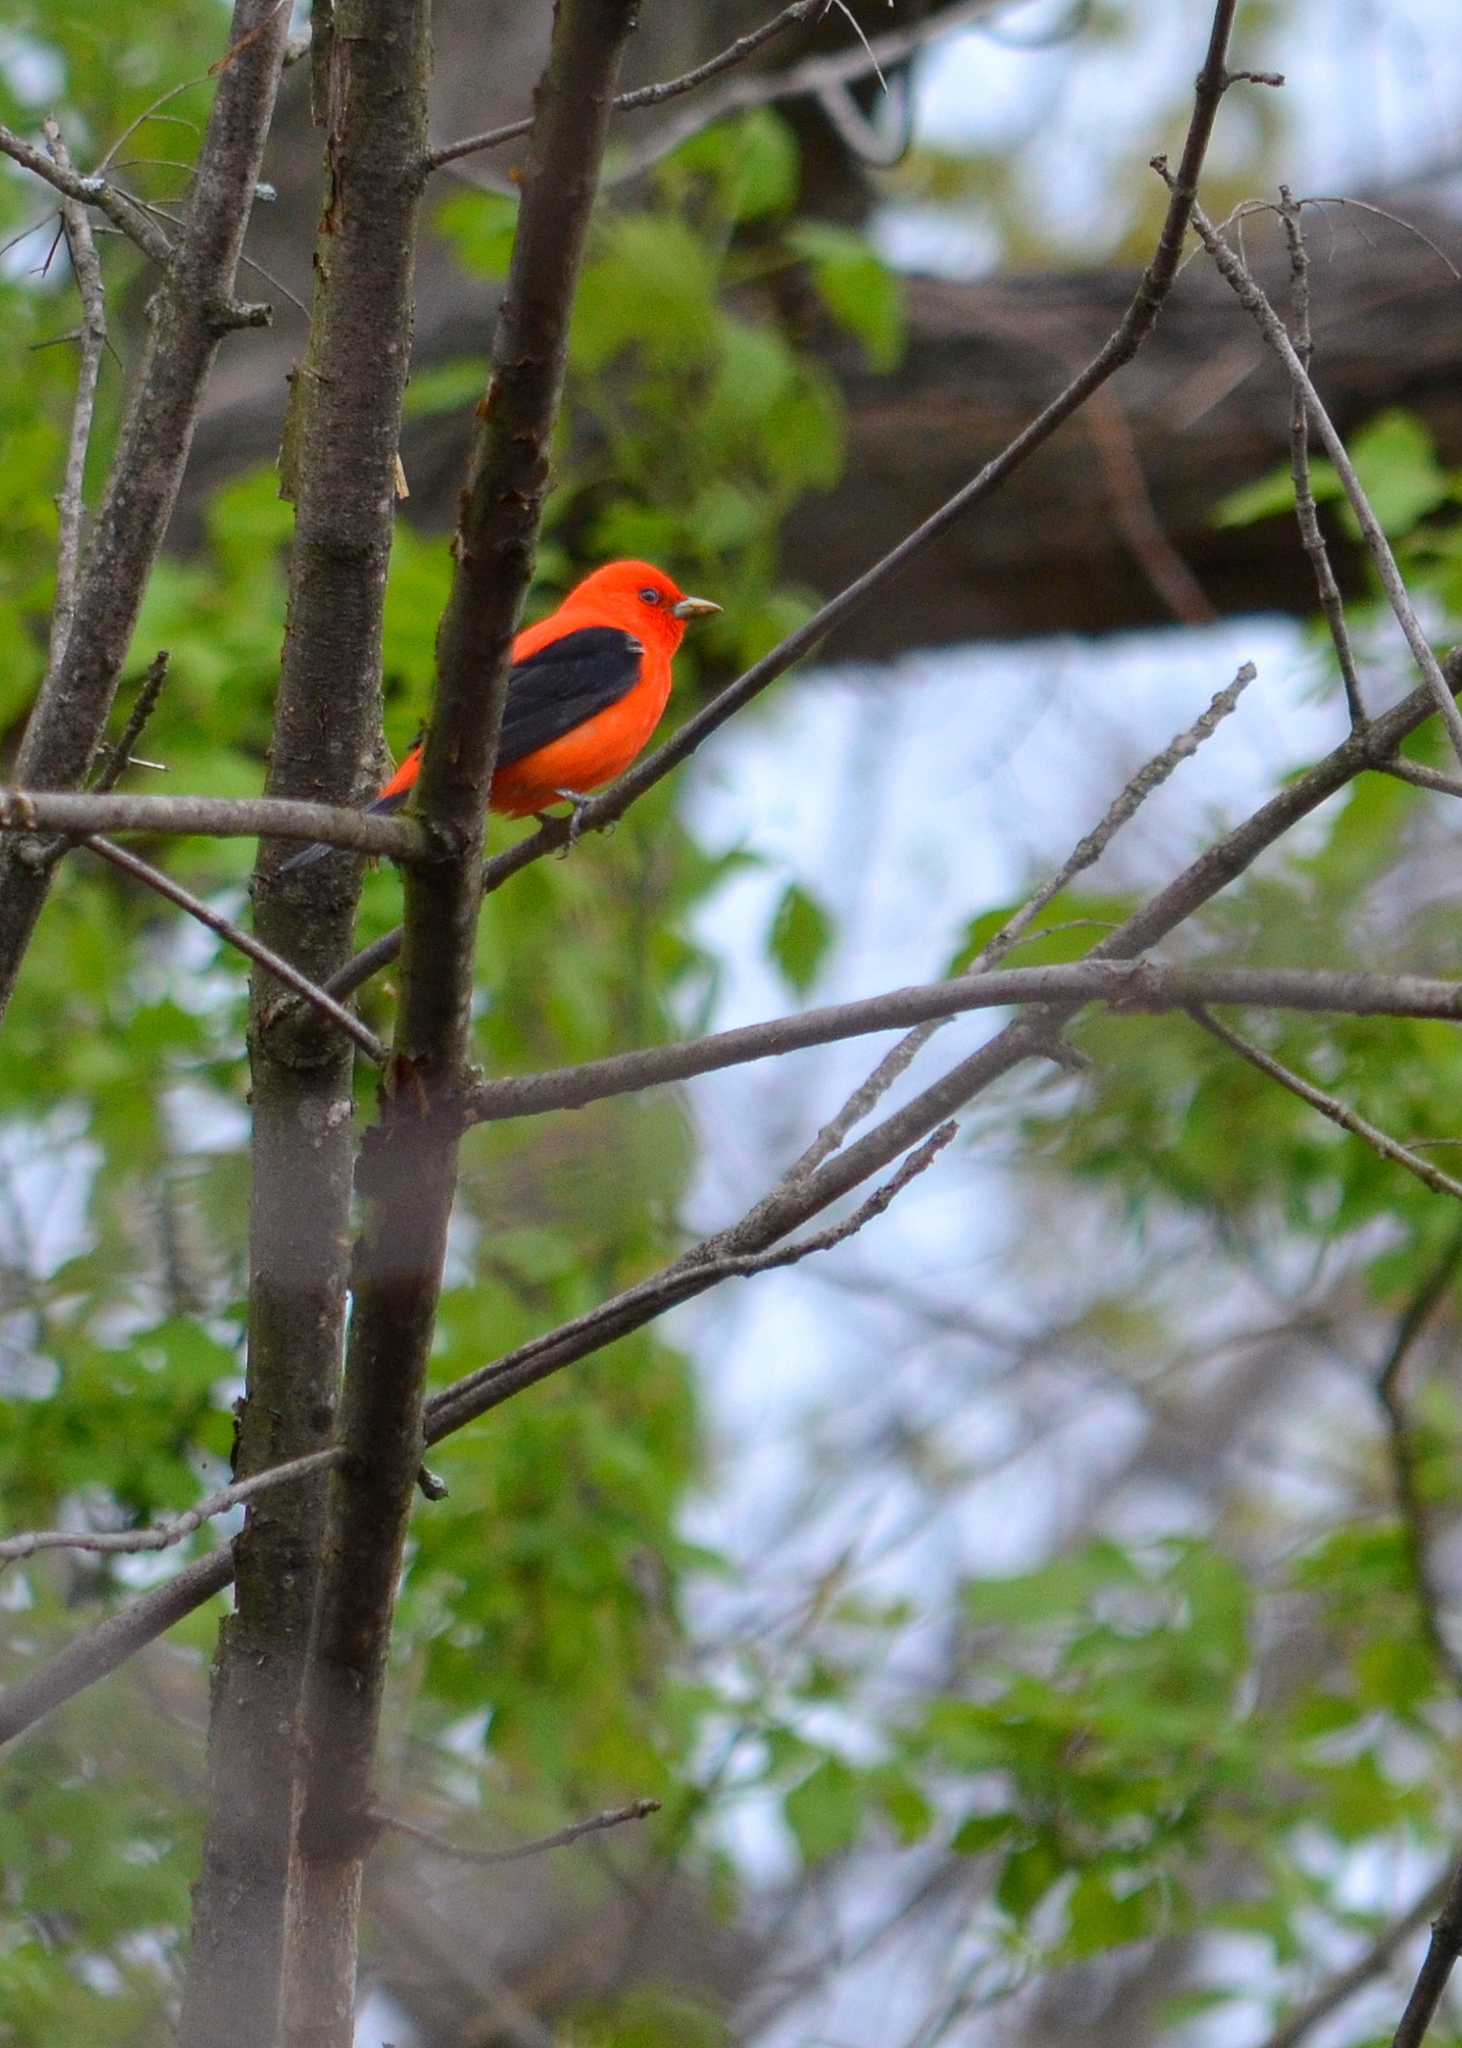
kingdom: Animalia
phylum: Chordata
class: Aves
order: Passeriformes
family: Cardinalidae
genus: Piranga
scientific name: Piranga olivacea
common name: Scarlet tanager
